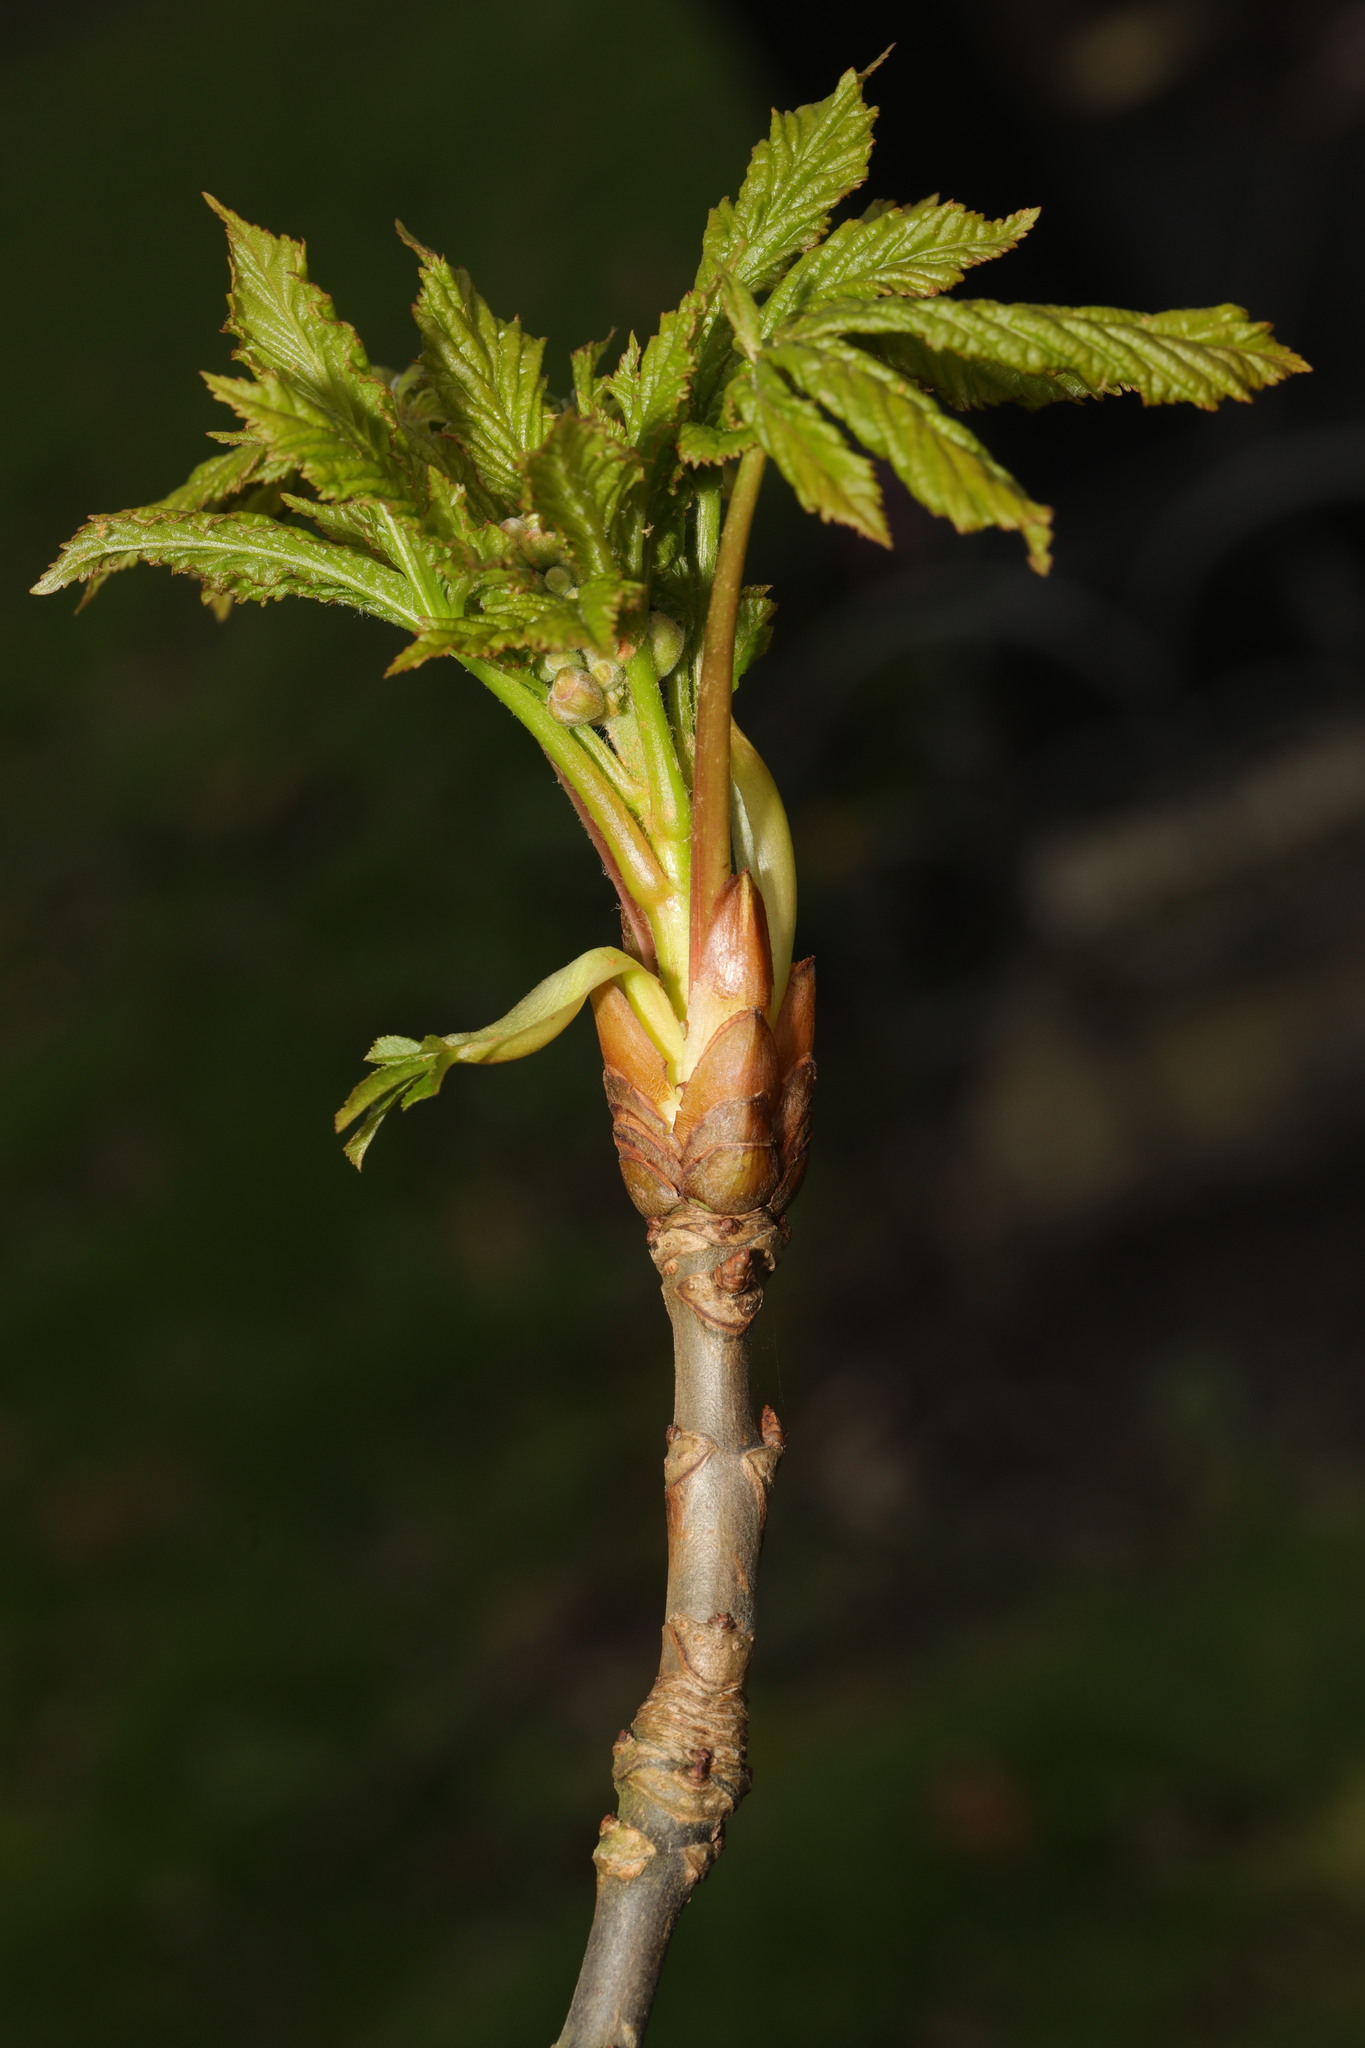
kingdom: Plantae
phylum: Tracheophyta
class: Magnoliopsida
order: Sapindales
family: Sapindaceae
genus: Aesculus
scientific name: Aesculus hippocastanum
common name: Horse-chestnut
